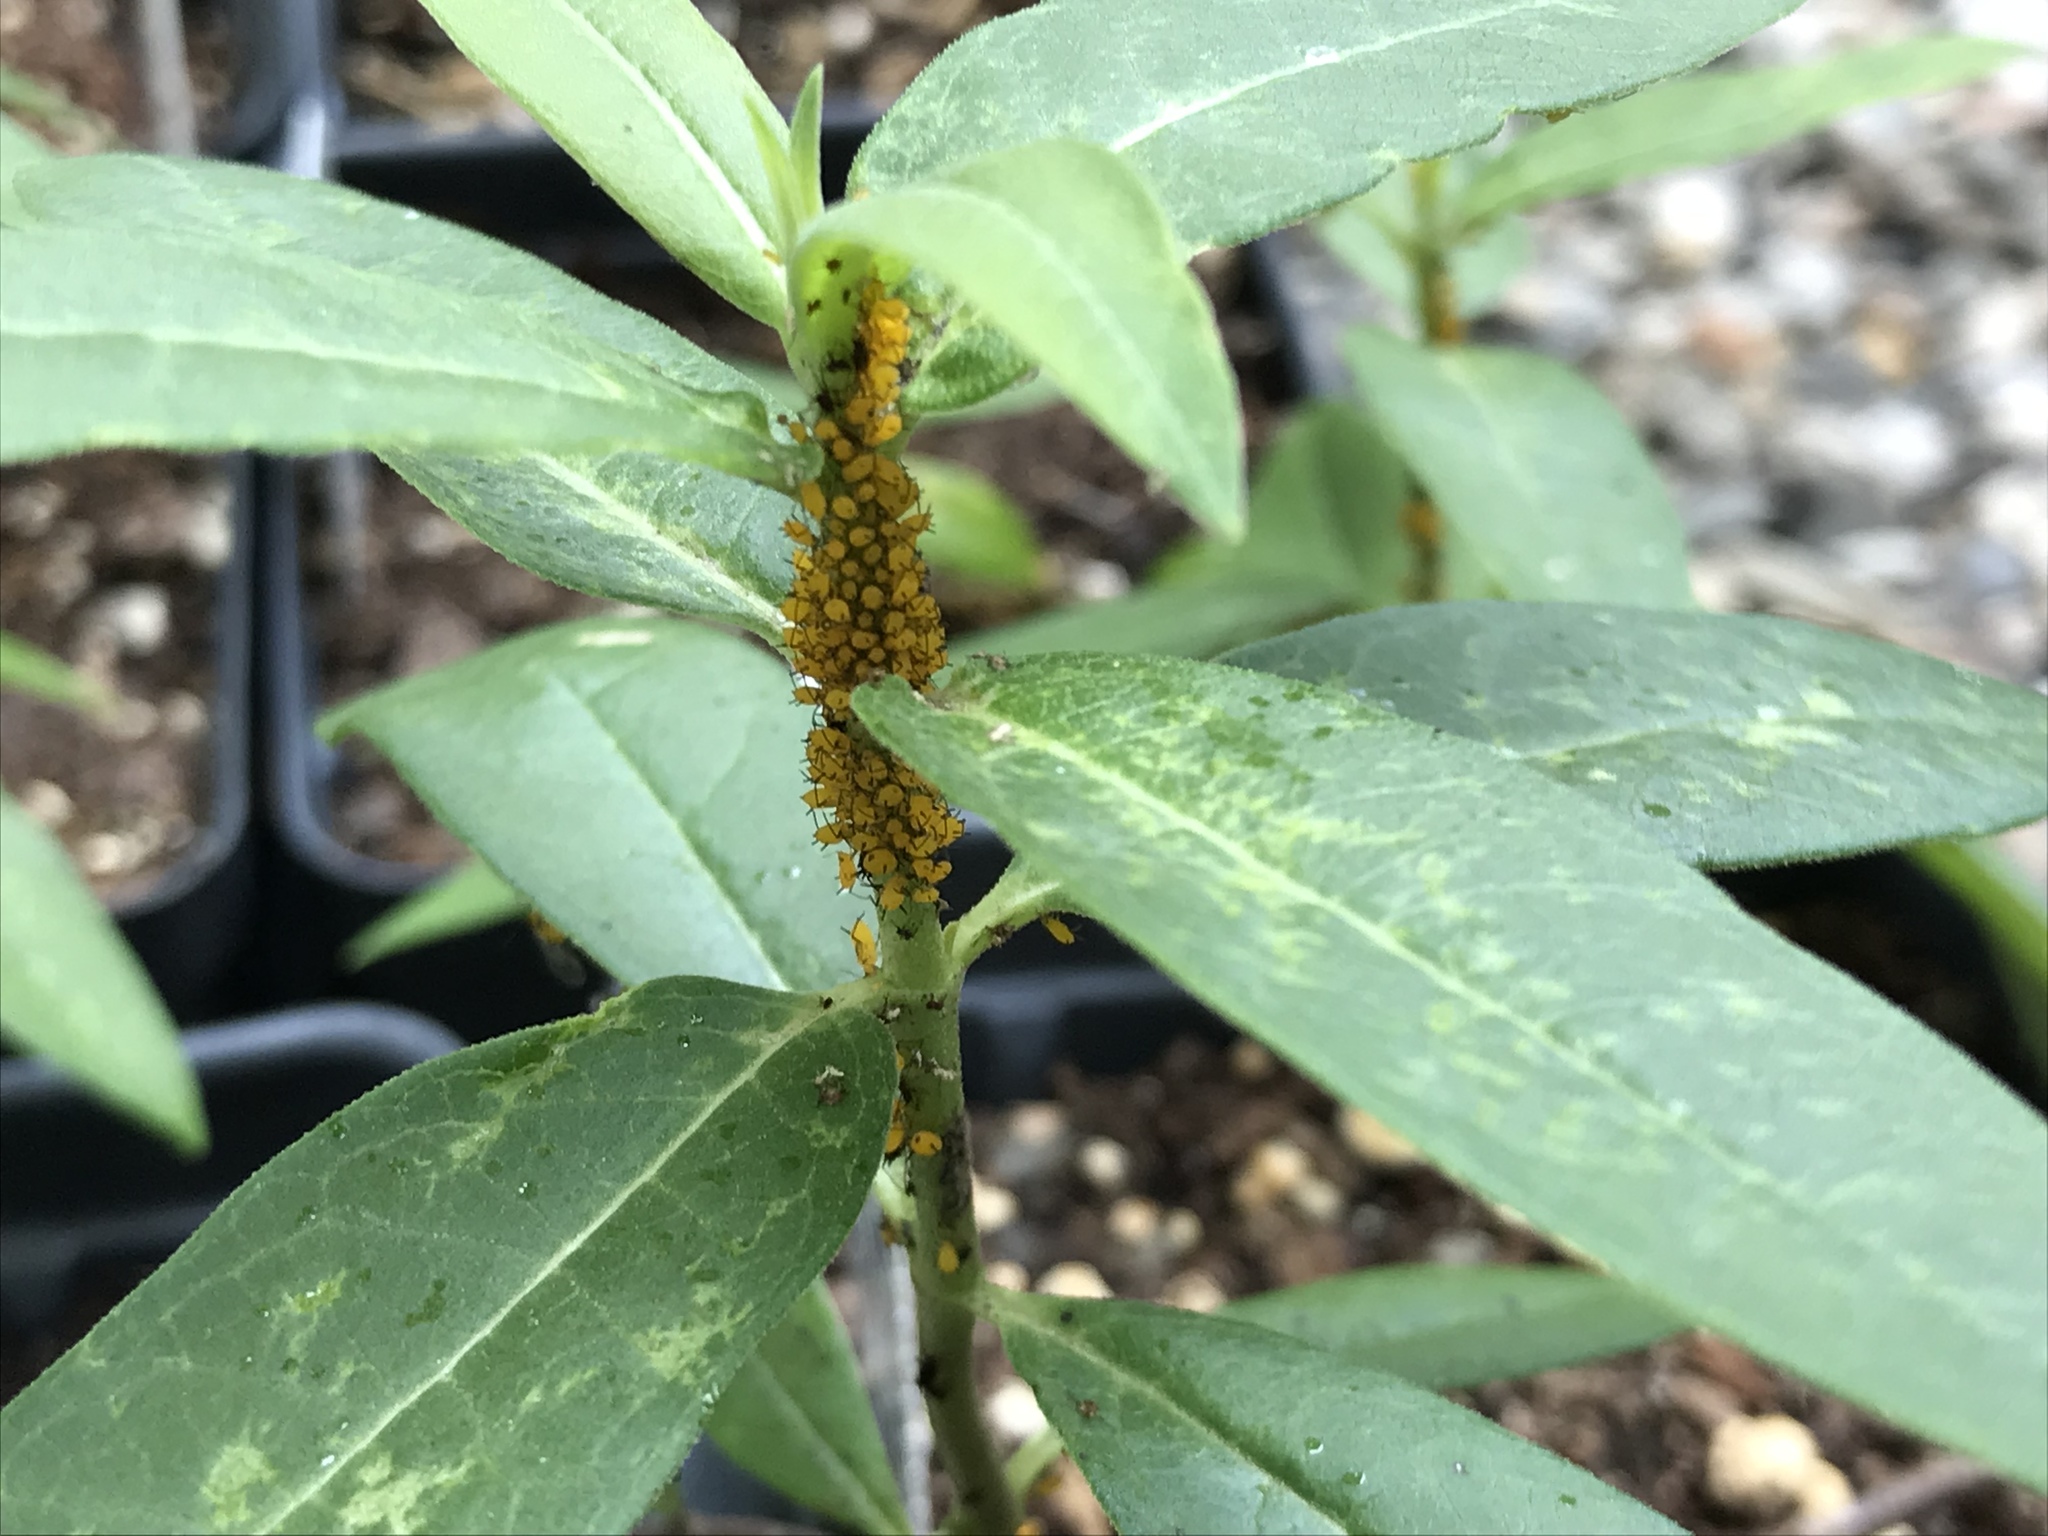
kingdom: Animalia
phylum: Arthropoda
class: Insecta
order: Hemiptera
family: Aphididae
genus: Aphis
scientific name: Aphis nerii
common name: Oleander aphid
